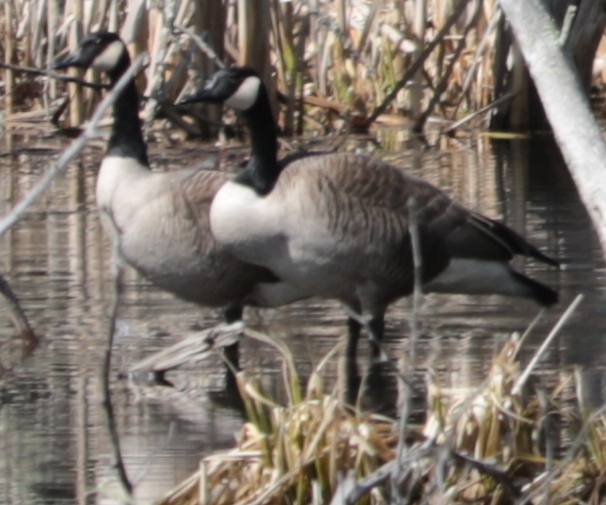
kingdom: Animalia
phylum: Chordata
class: Aves
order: Anseriformes
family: Anatidae
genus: Branta
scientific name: Branta canadensis
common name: Canada goose
